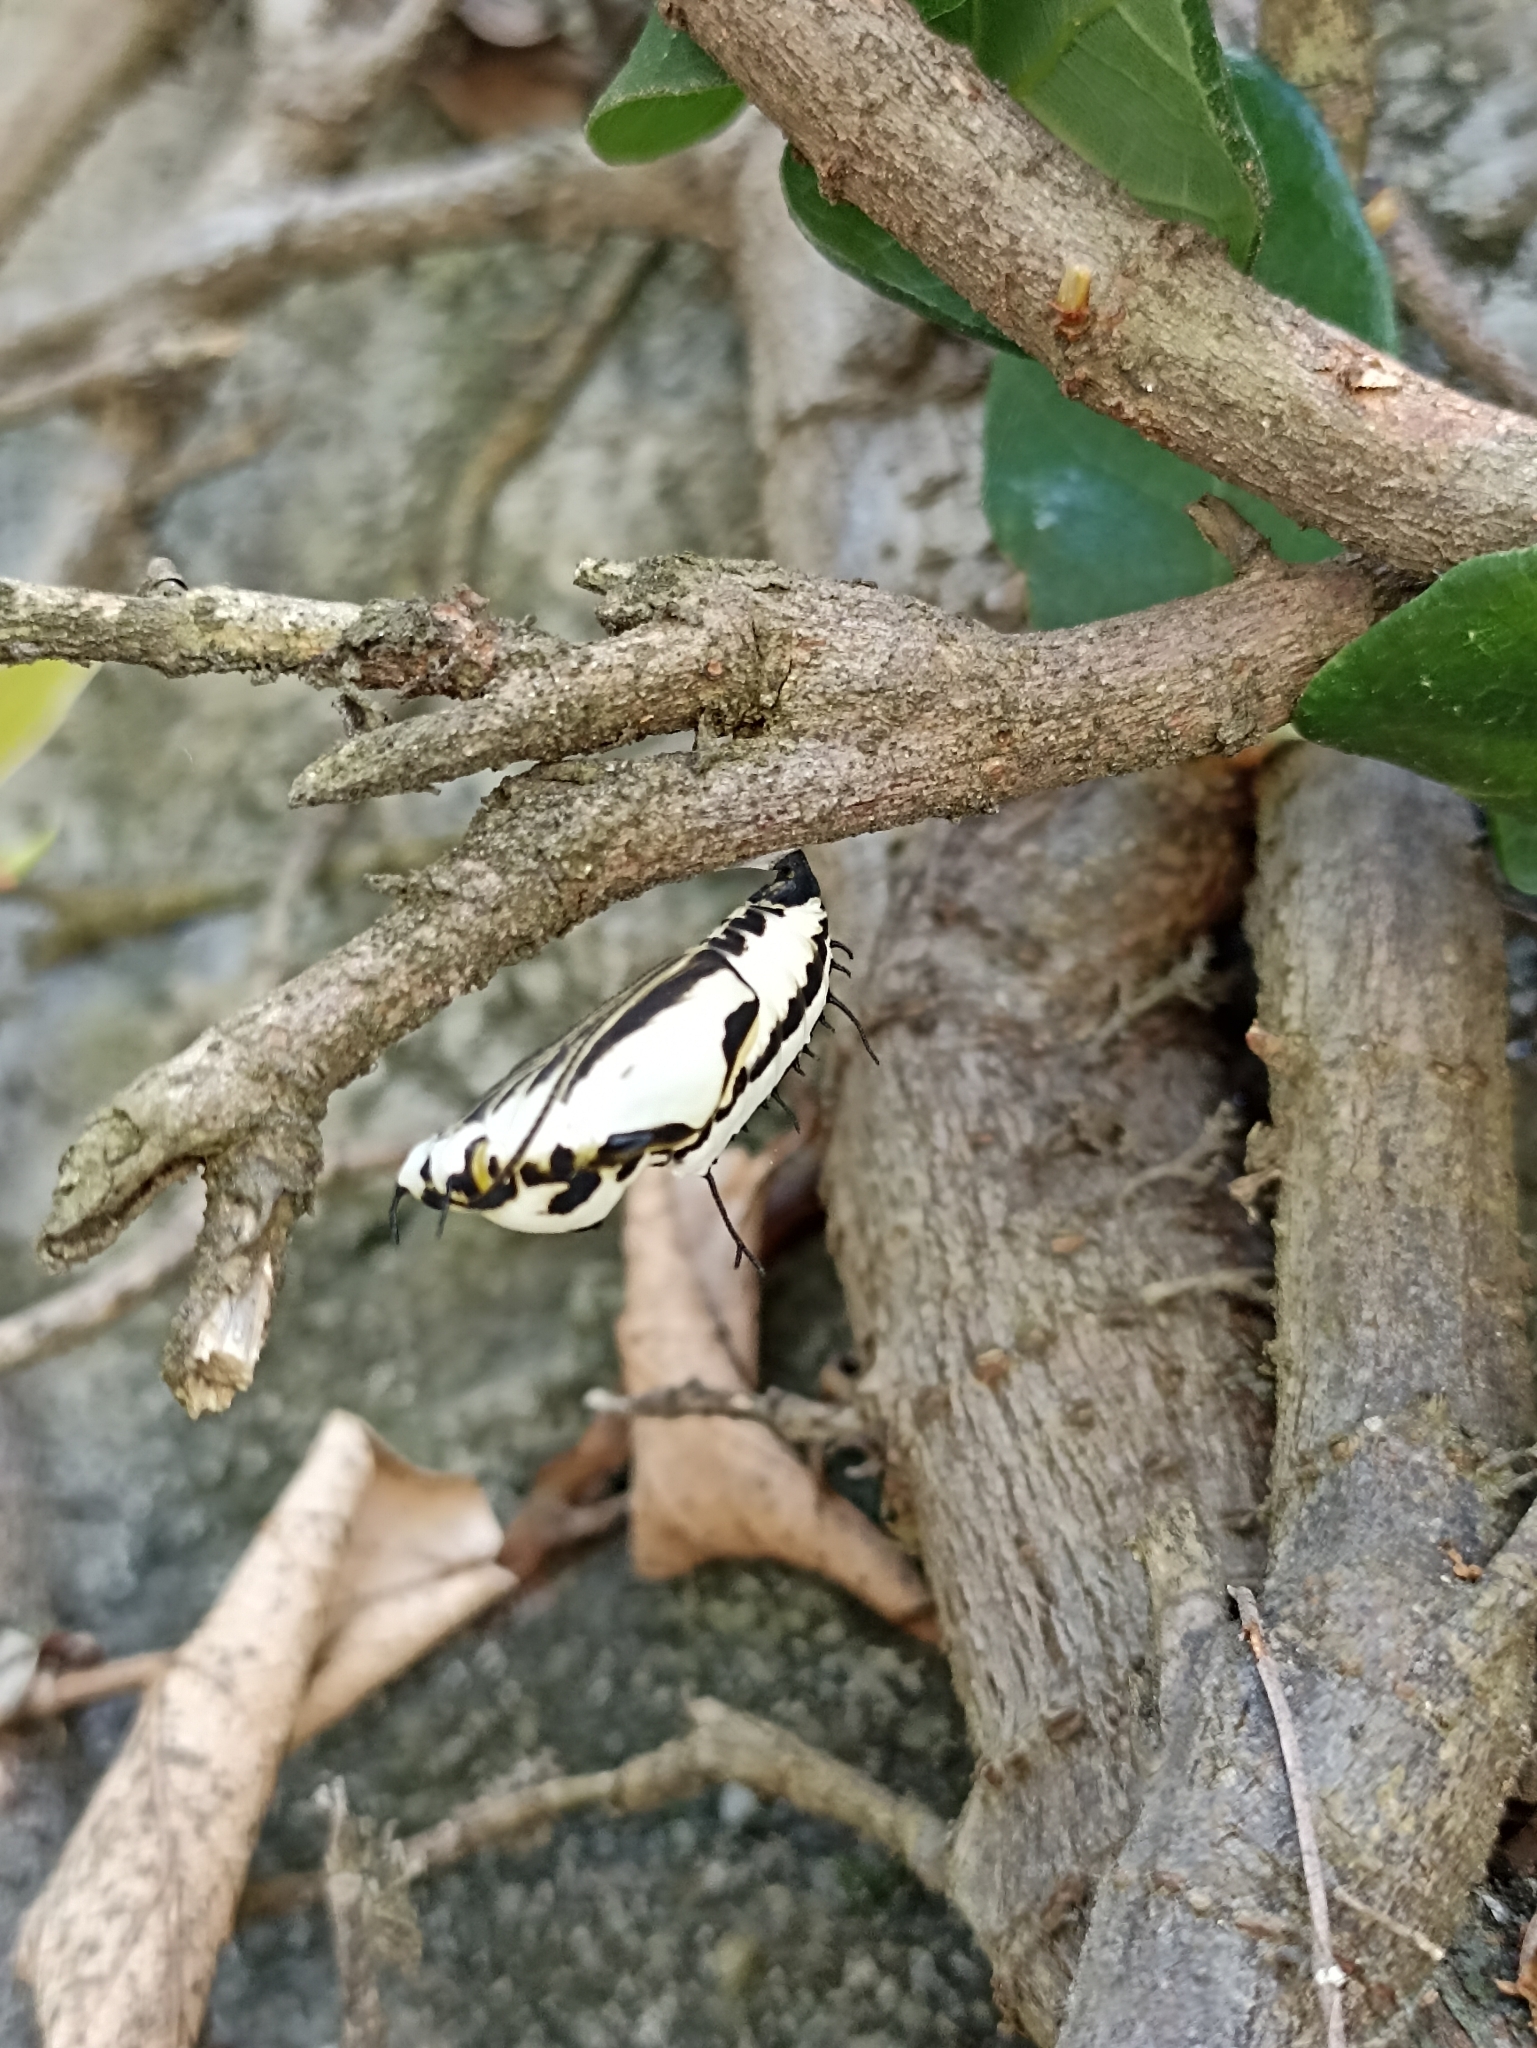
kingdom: Animalia
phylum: Arthropoda
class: Insecta
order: Lepidoptera
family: Nymphalidae
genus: Marpesia
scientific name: Marpesia petreus
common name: Red dagger wing
